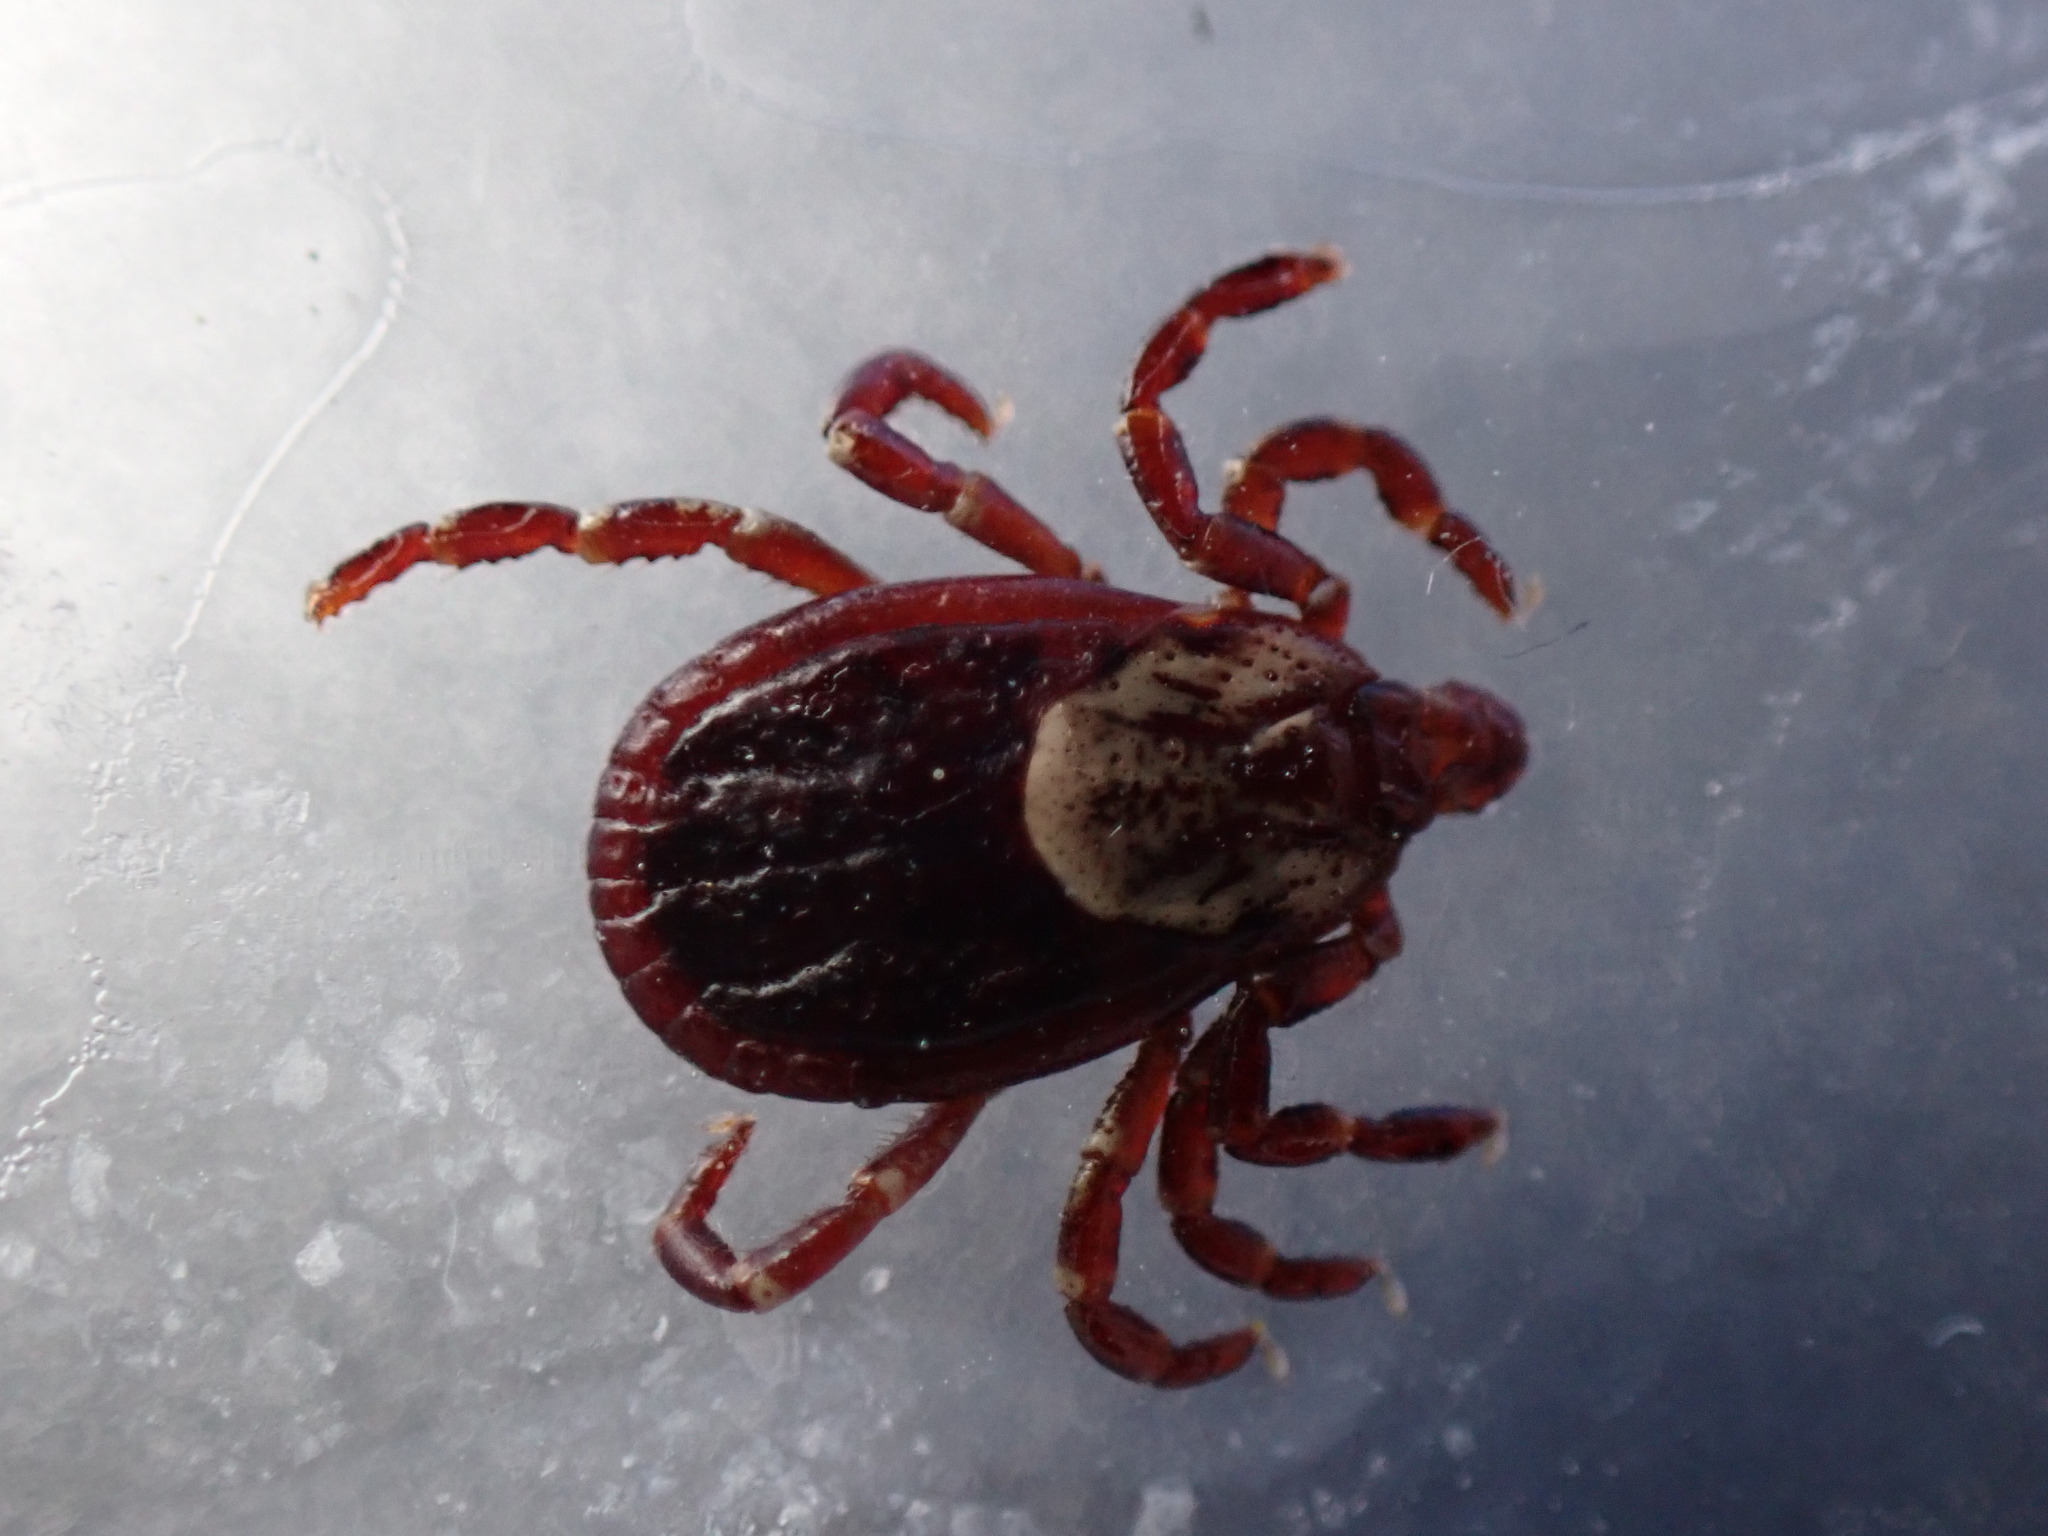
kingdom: Animalia
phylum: Arthropoda
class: Arachnida
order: Ixodida
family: Ixodidae
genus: Dermacentor
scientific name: Dermacentor variabilis
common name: American dog tick
